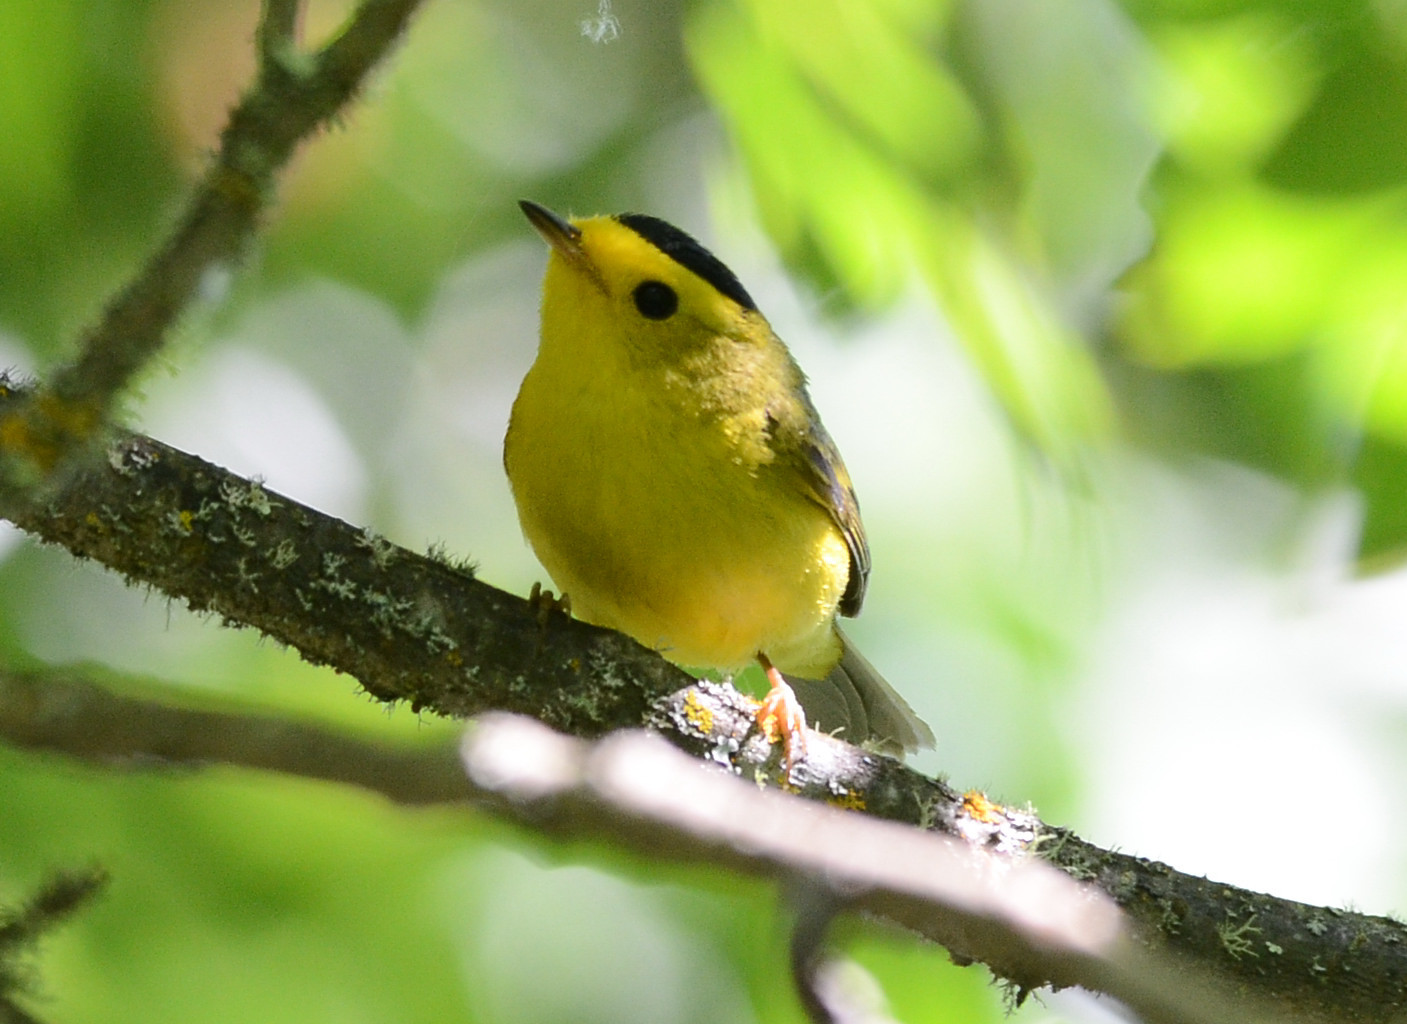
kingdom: Animalia
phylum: Chordata
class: Aves
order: Passeriformes
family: Parulidae
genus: Cardellina
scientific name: Cardellina pusilla
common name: Wilson's warbler
